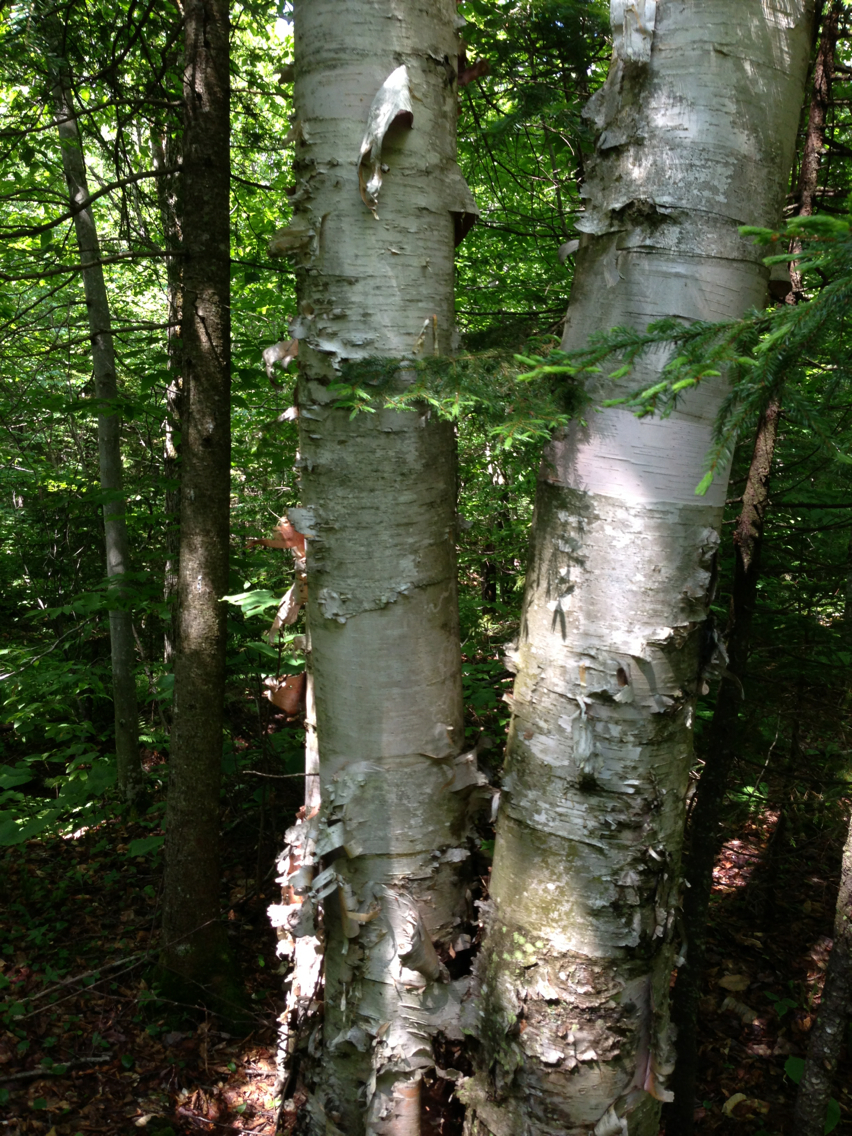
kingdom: Plantae
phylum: Tracheophyta
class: Magnoliopsida
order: Fagales
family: Betulaceae
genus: Betula
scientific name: Betula cordifolia
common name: Mountain white birch
